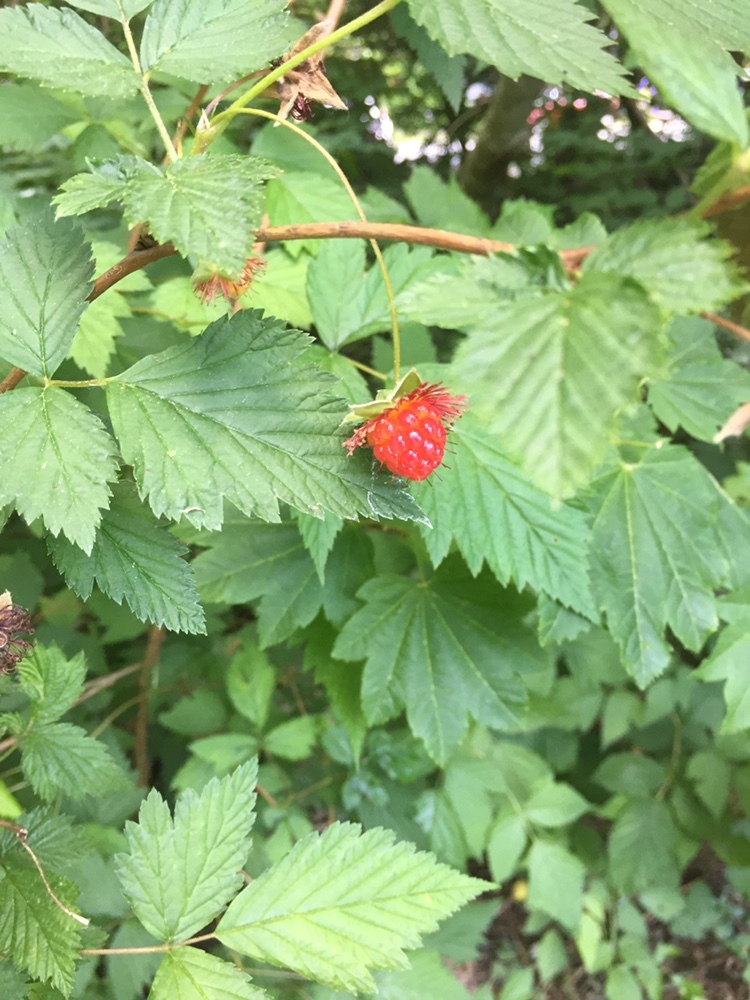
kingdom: Plantae
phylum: Tracheophyta
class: Magnoliopsida
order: Rosales
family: Rosaceae
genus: Rubus
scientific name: Rubus spectabilis
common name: Salmonberry
